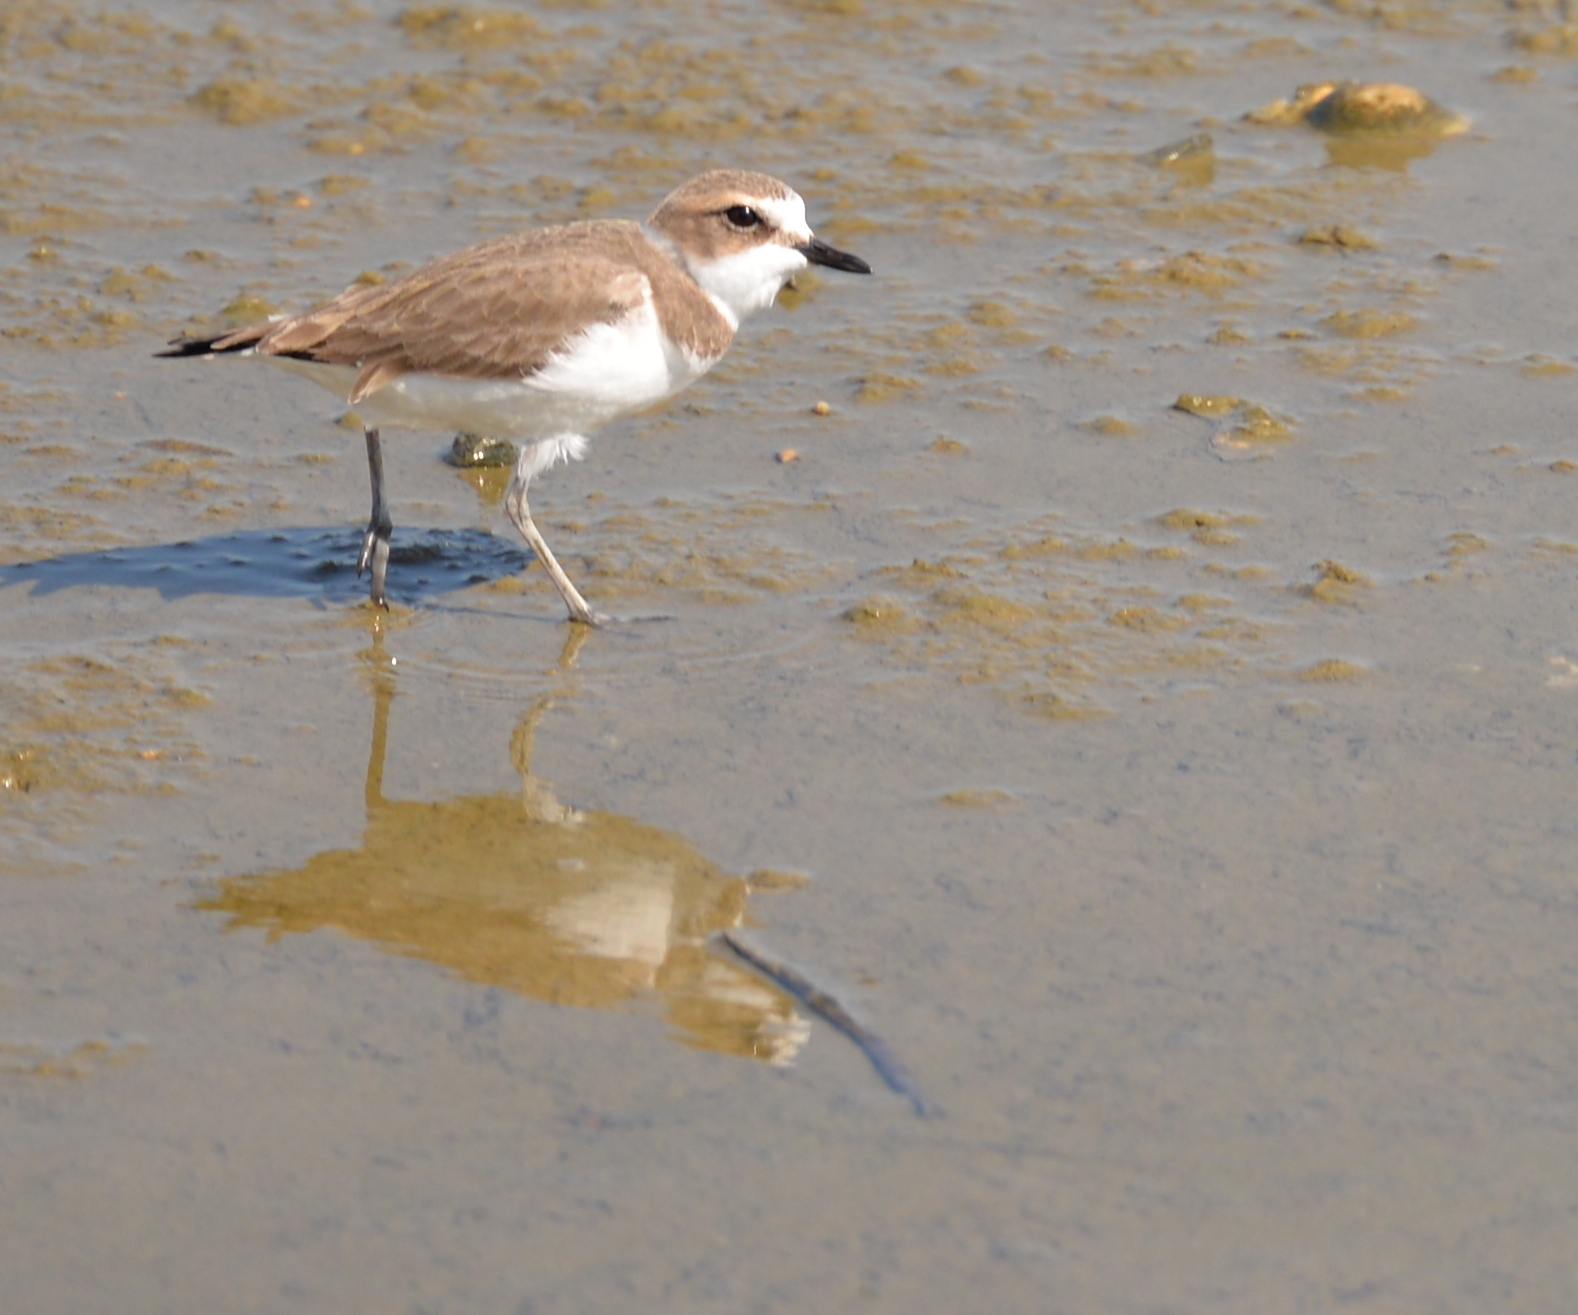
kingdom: Animalia
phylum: Chordata
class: Aves
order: Charadriiformes
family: Charadriidae
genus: Charadrius
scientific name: Charadrius alexandrinus
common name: Kentish plover
